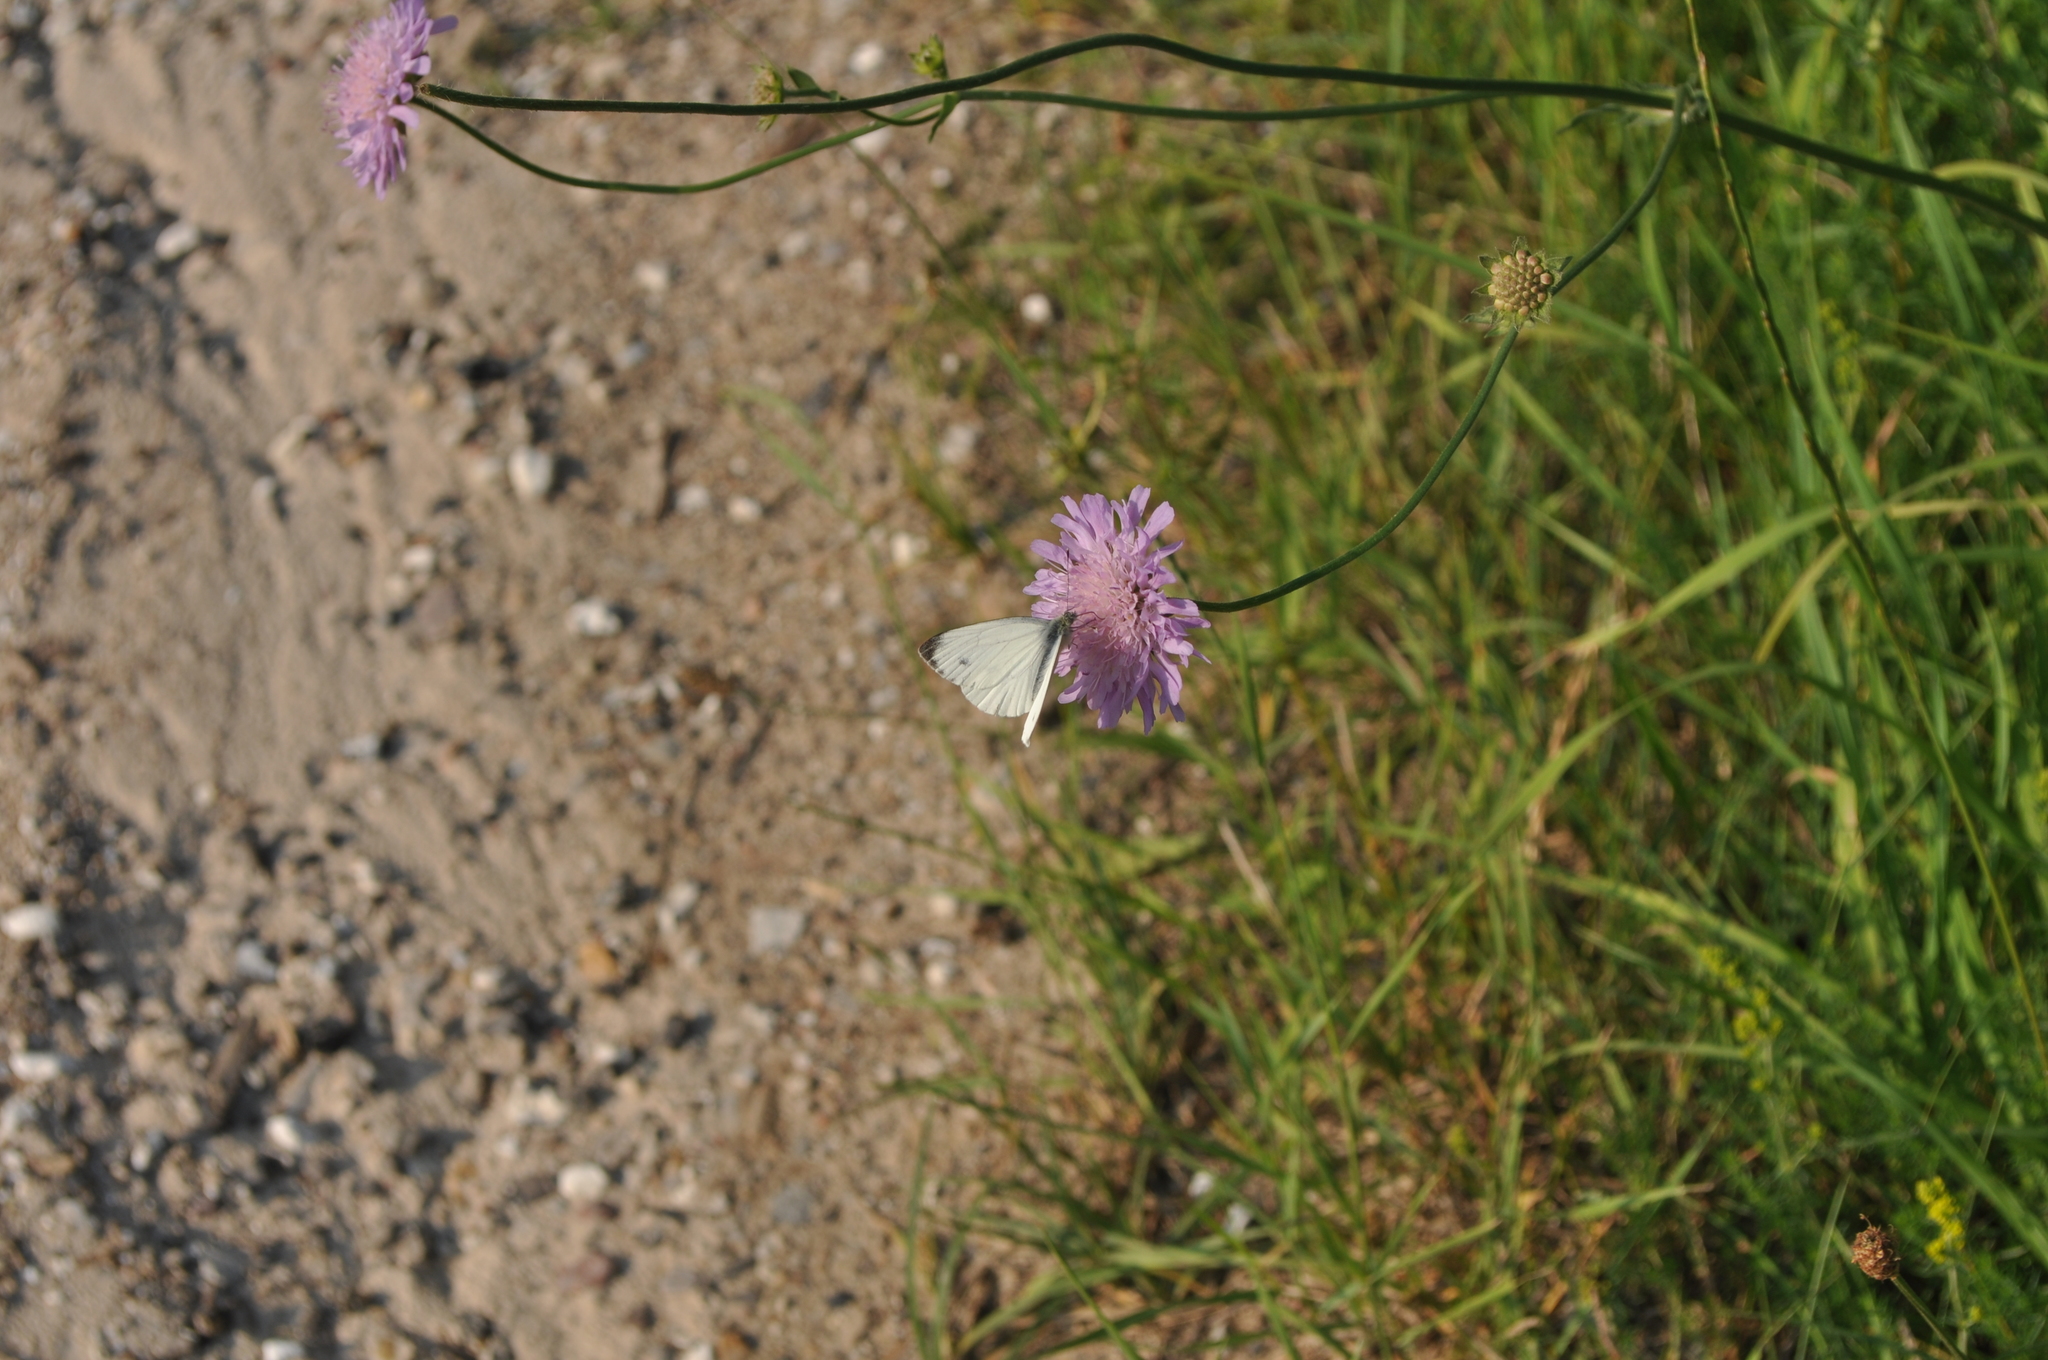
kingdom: Animalia
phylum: Arthropoda
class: Insecta
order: Lepidoptera
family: Pieridae
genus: Pieris
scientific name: Pieris napi
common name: Green-veined white
